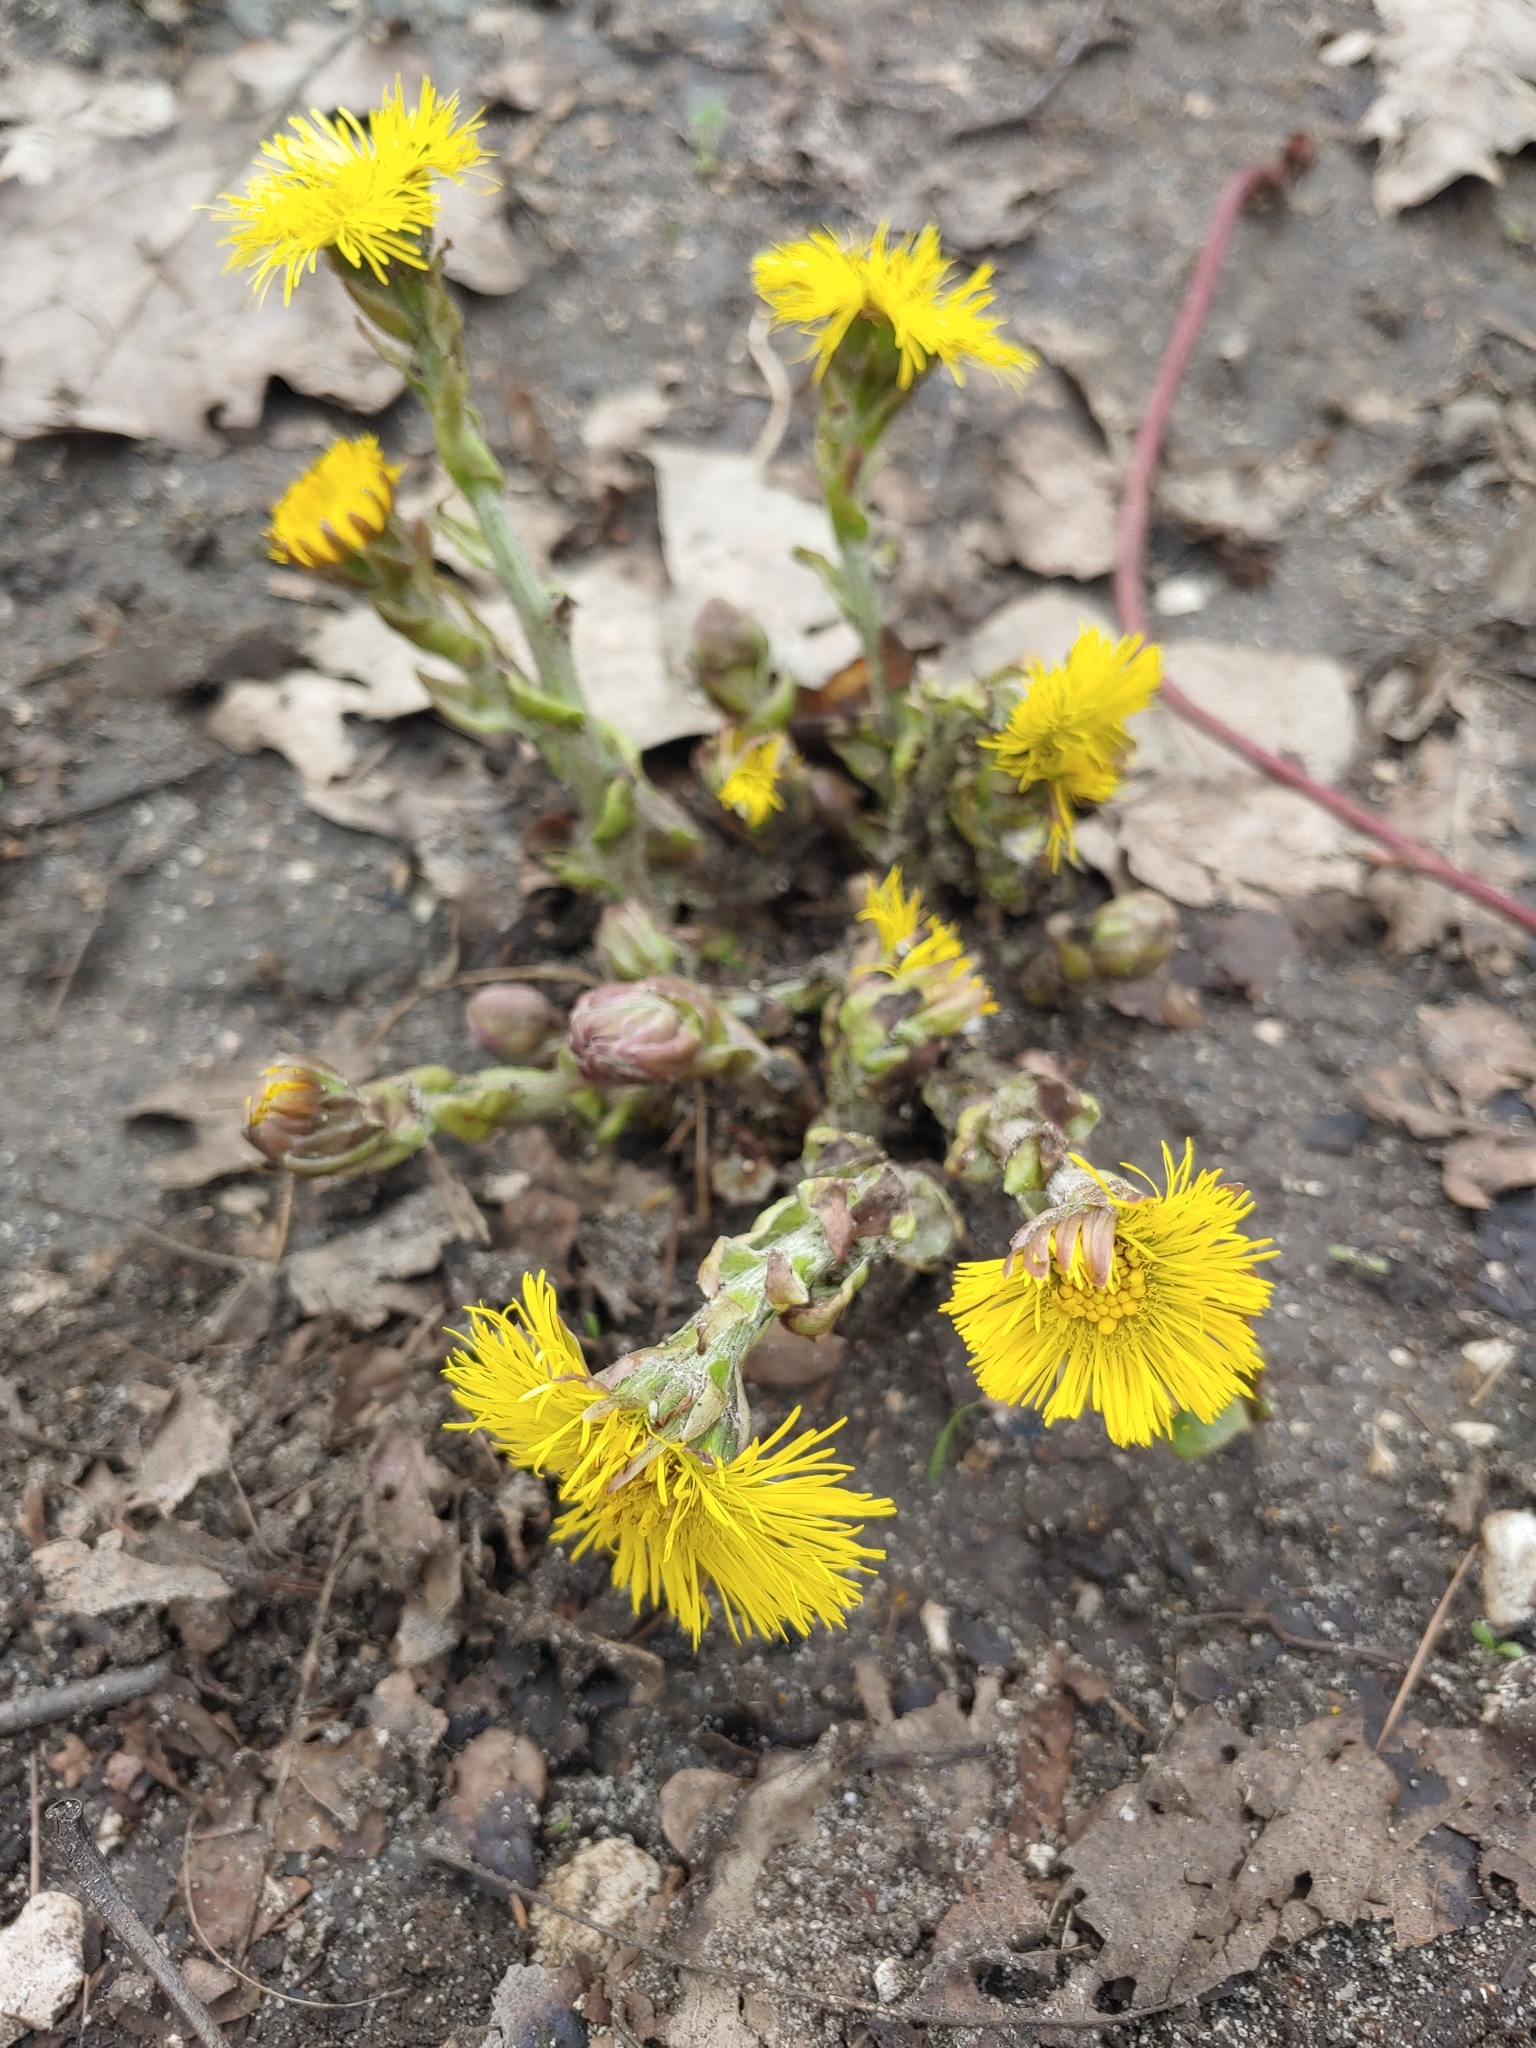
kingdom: Plantae
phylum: Tracheophyta
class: Magnoliopsida
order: Asterales
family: Asteraceae
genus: Tussilago
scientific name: Tussilago farfara
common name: Coltsfoot
